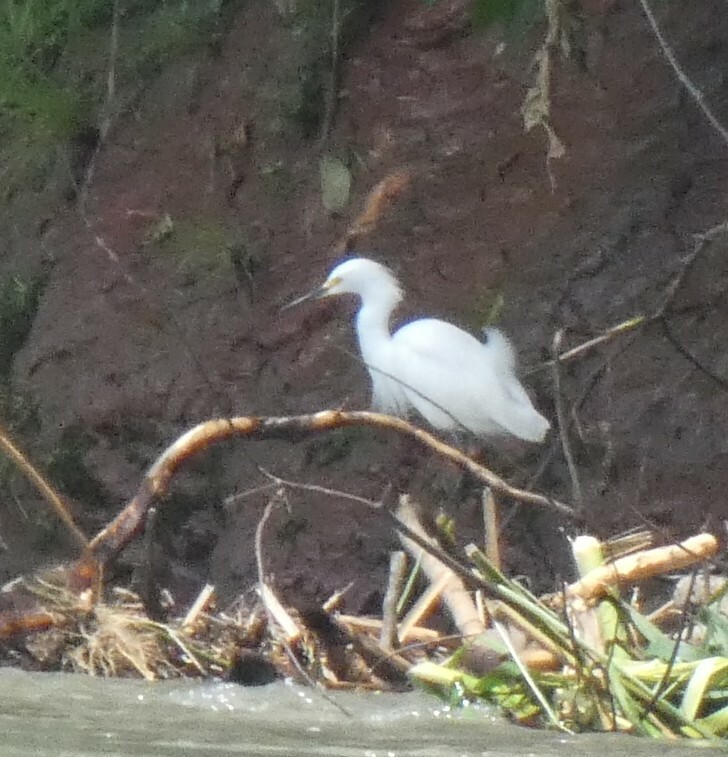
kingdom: Animalia
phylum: Chordata
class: Aves
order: Pelecaniformes
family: Ardeidae
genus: Egretta
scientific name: Egretta thula
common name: Snowy egret
